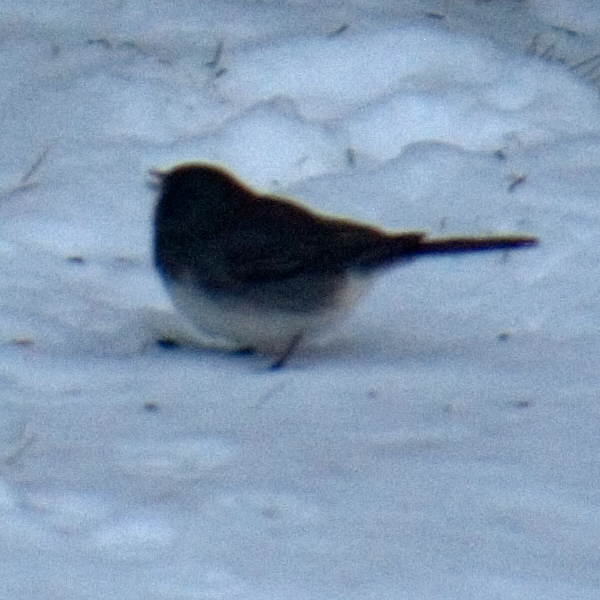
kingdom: Animalia
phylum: Chordata
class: Aves
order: Passeriformes
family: Passerellidae
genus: Junco
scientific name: Junco hyemalis
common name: Dark-eyed junco
